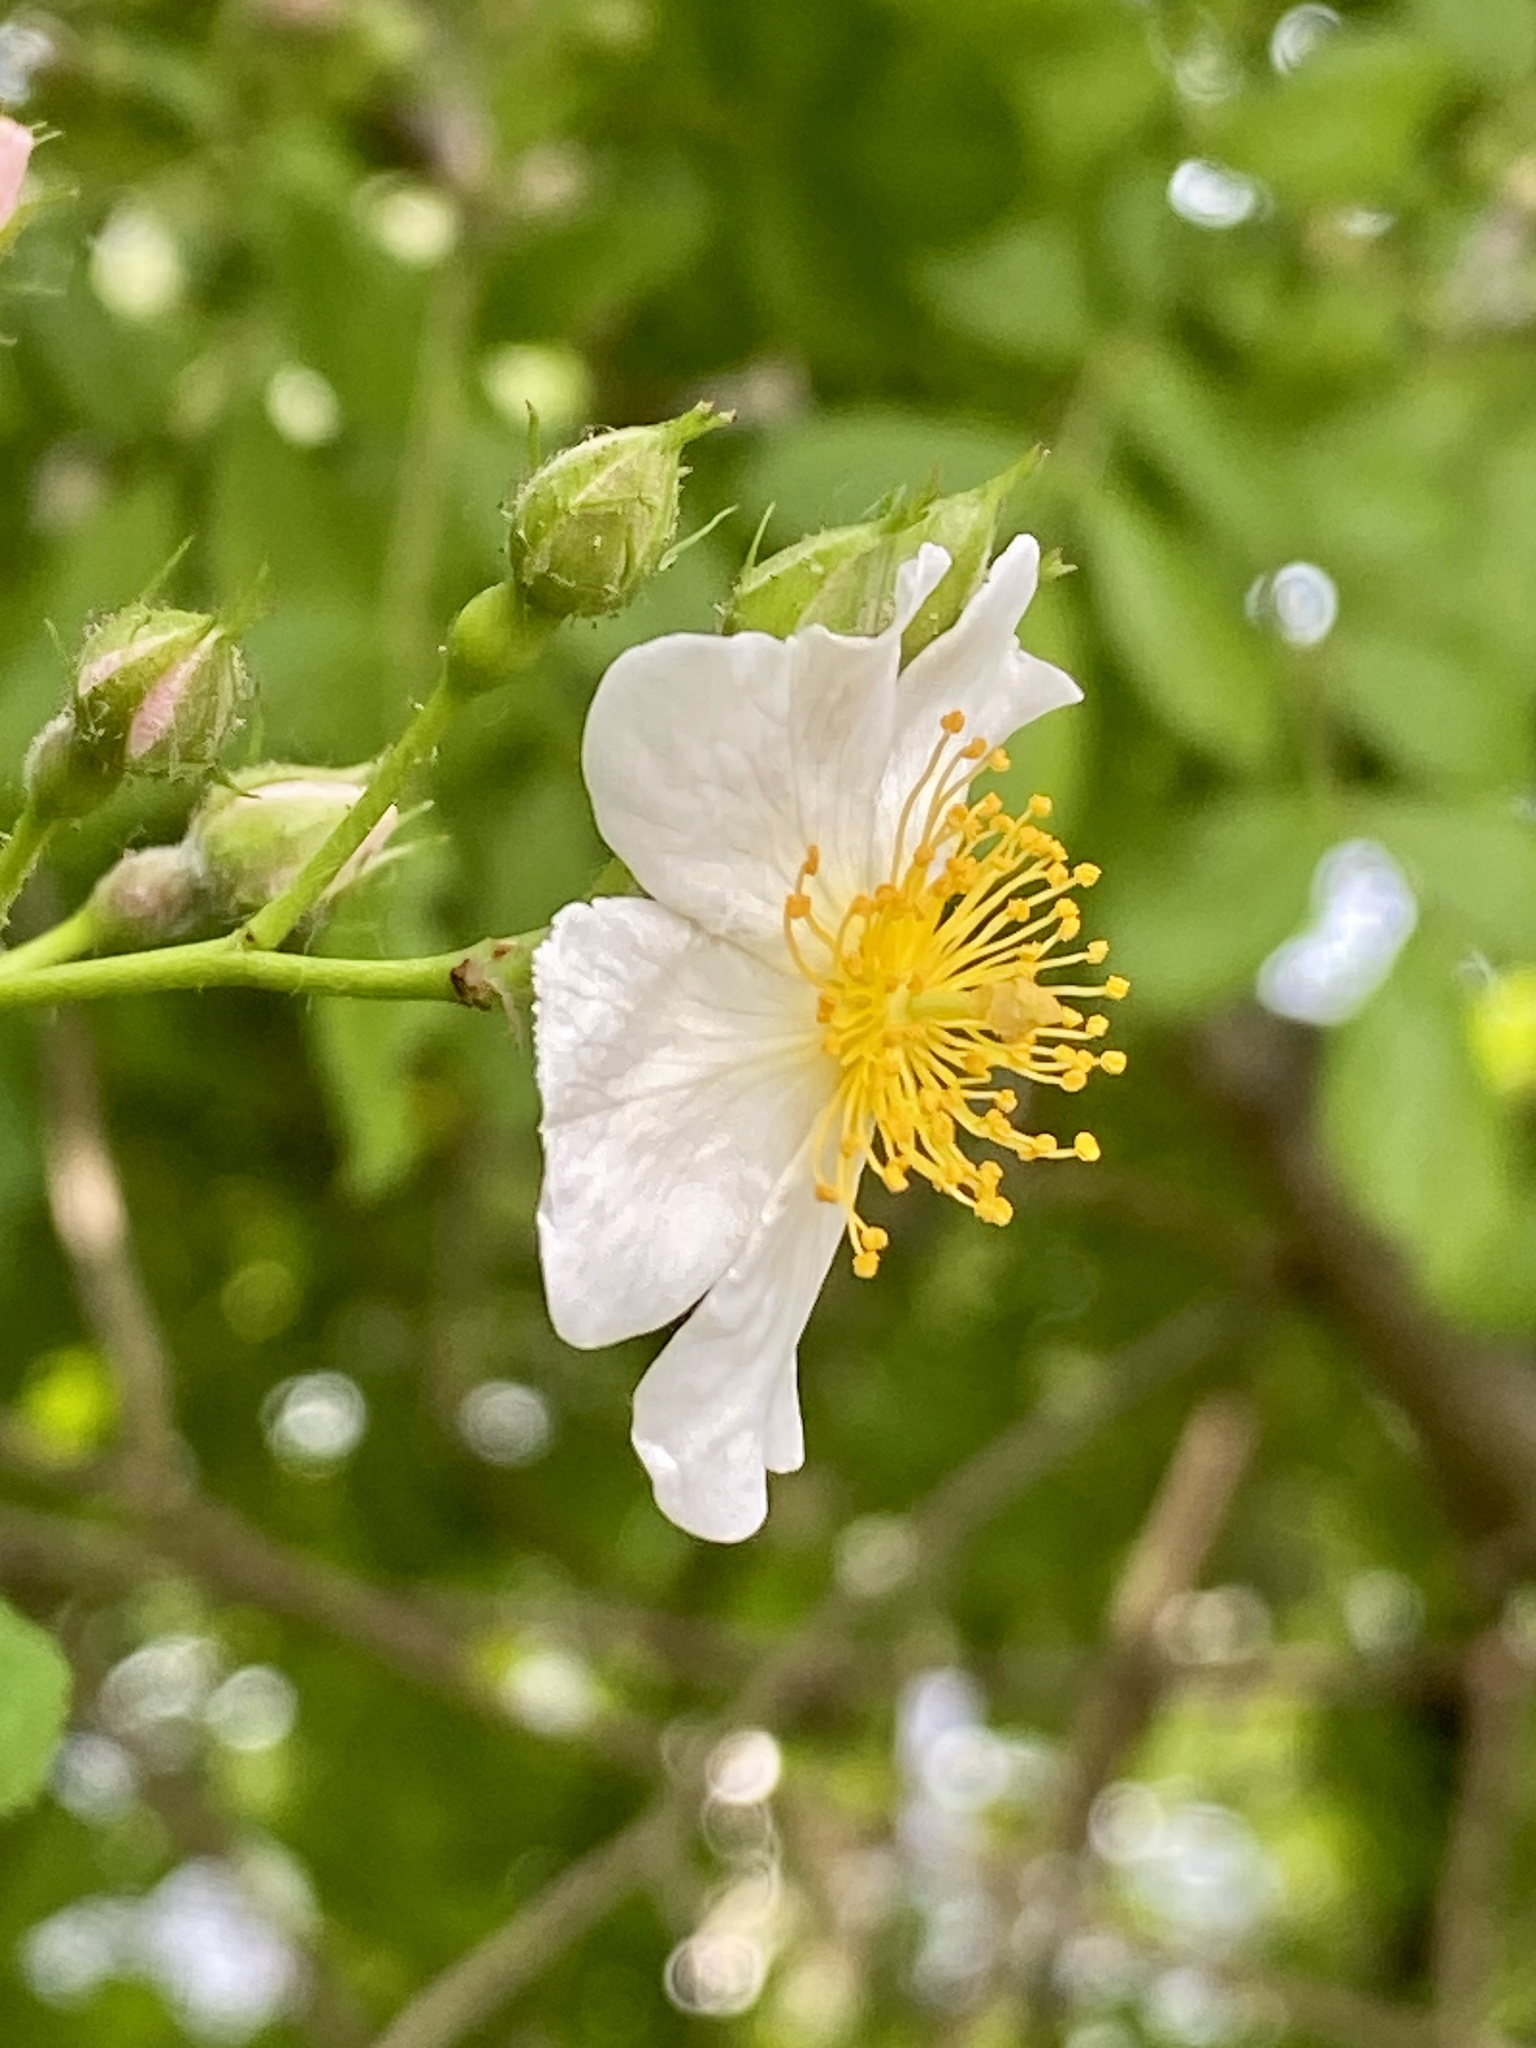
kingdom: Plantae
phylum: Tracheophyta
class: Magnoliopsida
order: Rosales
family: Rosaceae
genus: Rosa
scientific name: Rosa multiflora
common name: Multiflora rose
